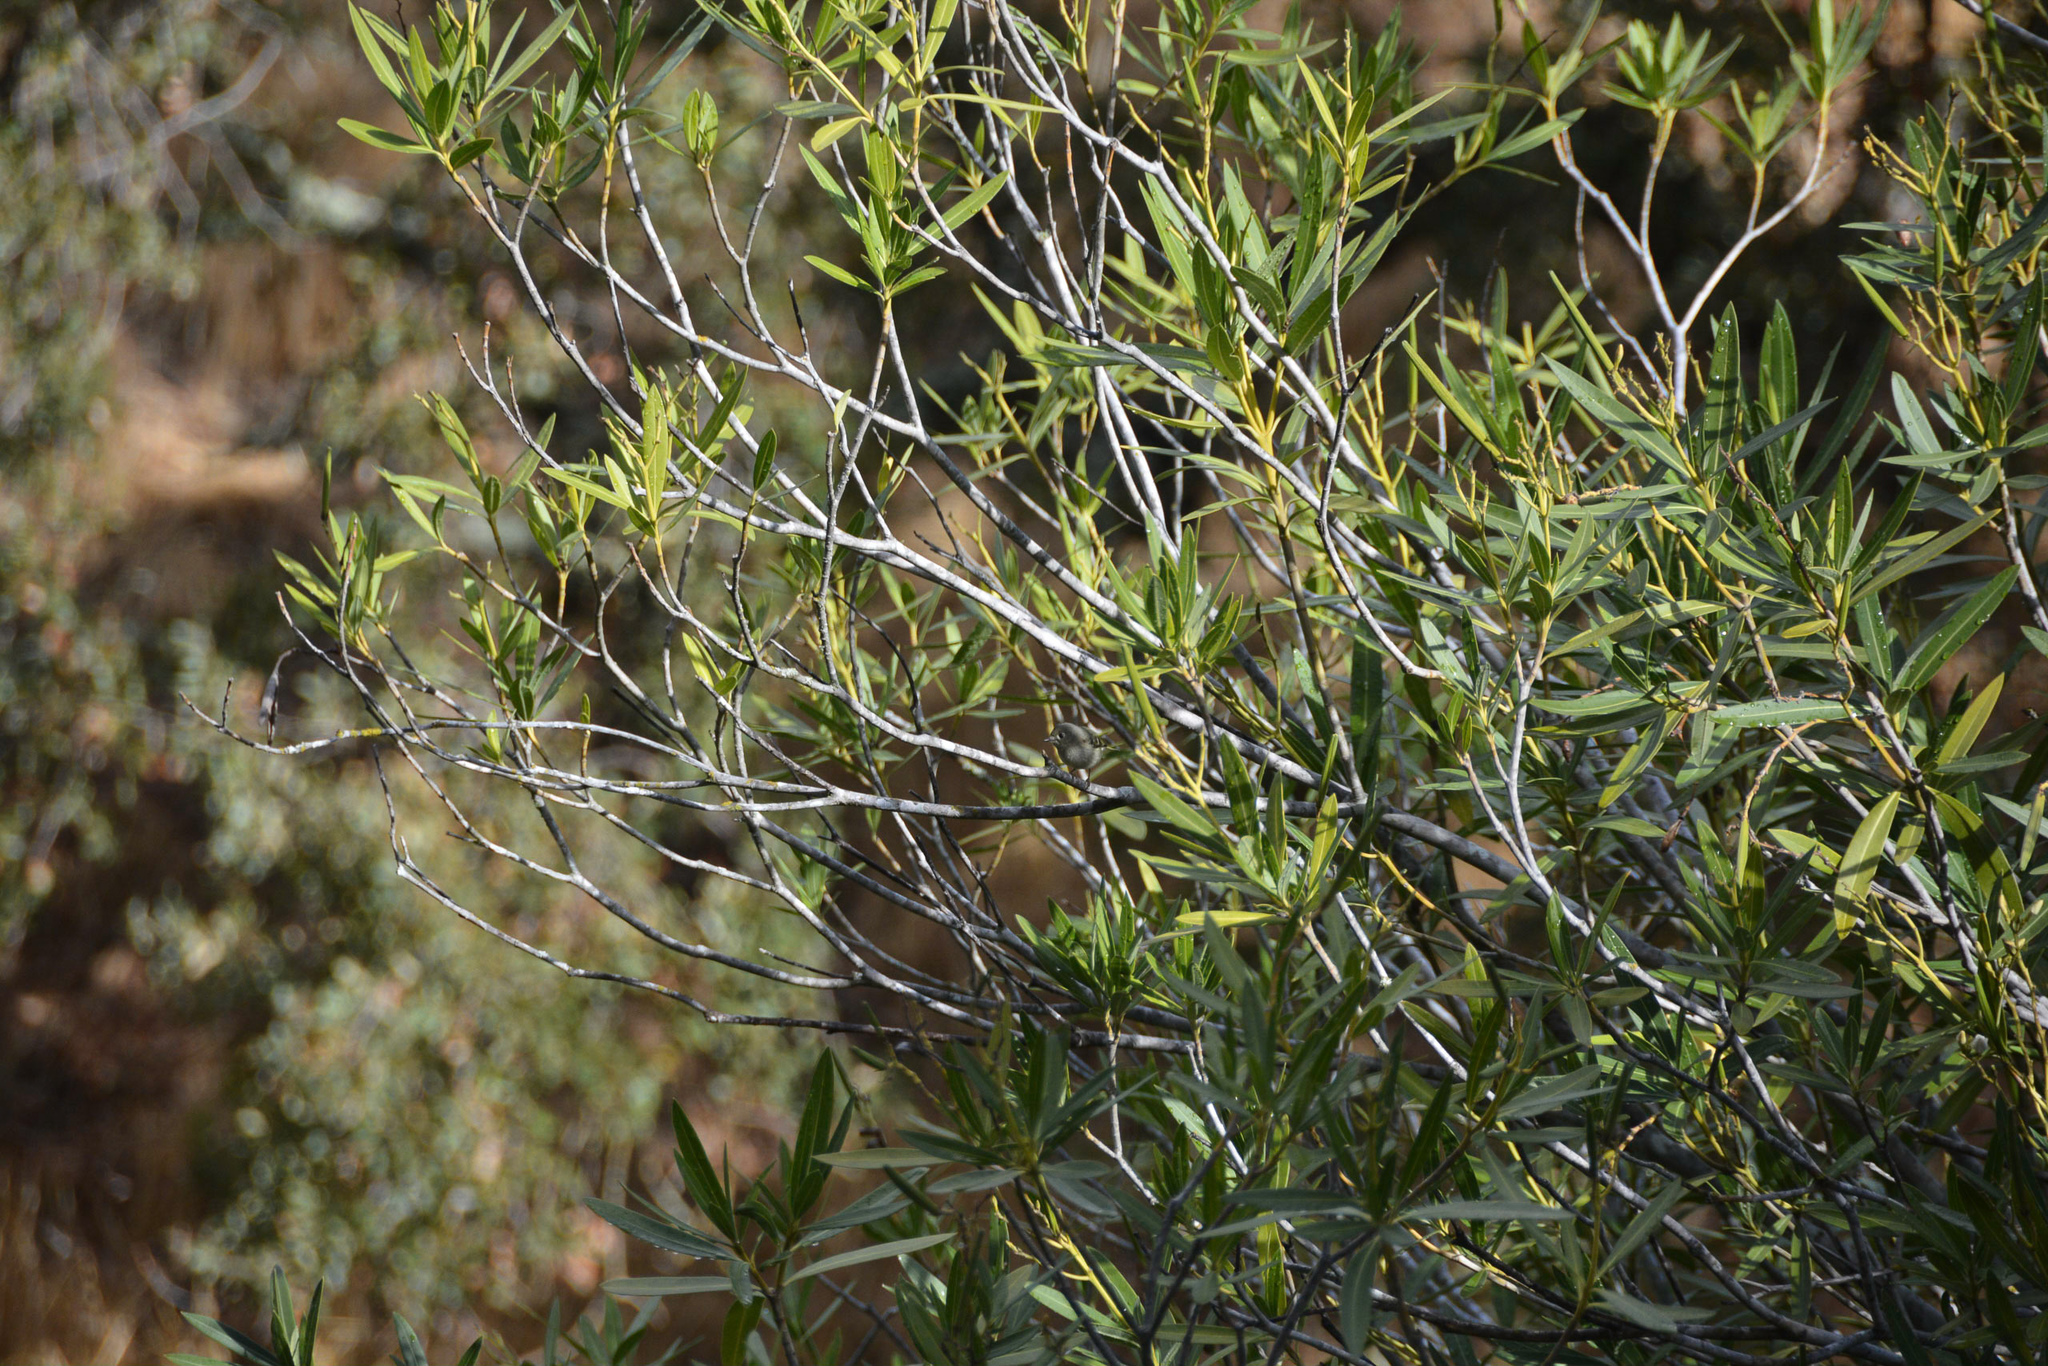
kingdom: Animalia
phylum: Chordata
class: Aves
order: Passeriformes
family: Regulidae
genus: Regulus
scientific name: Regulus calendula
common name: Ruby-crowned kinglet
